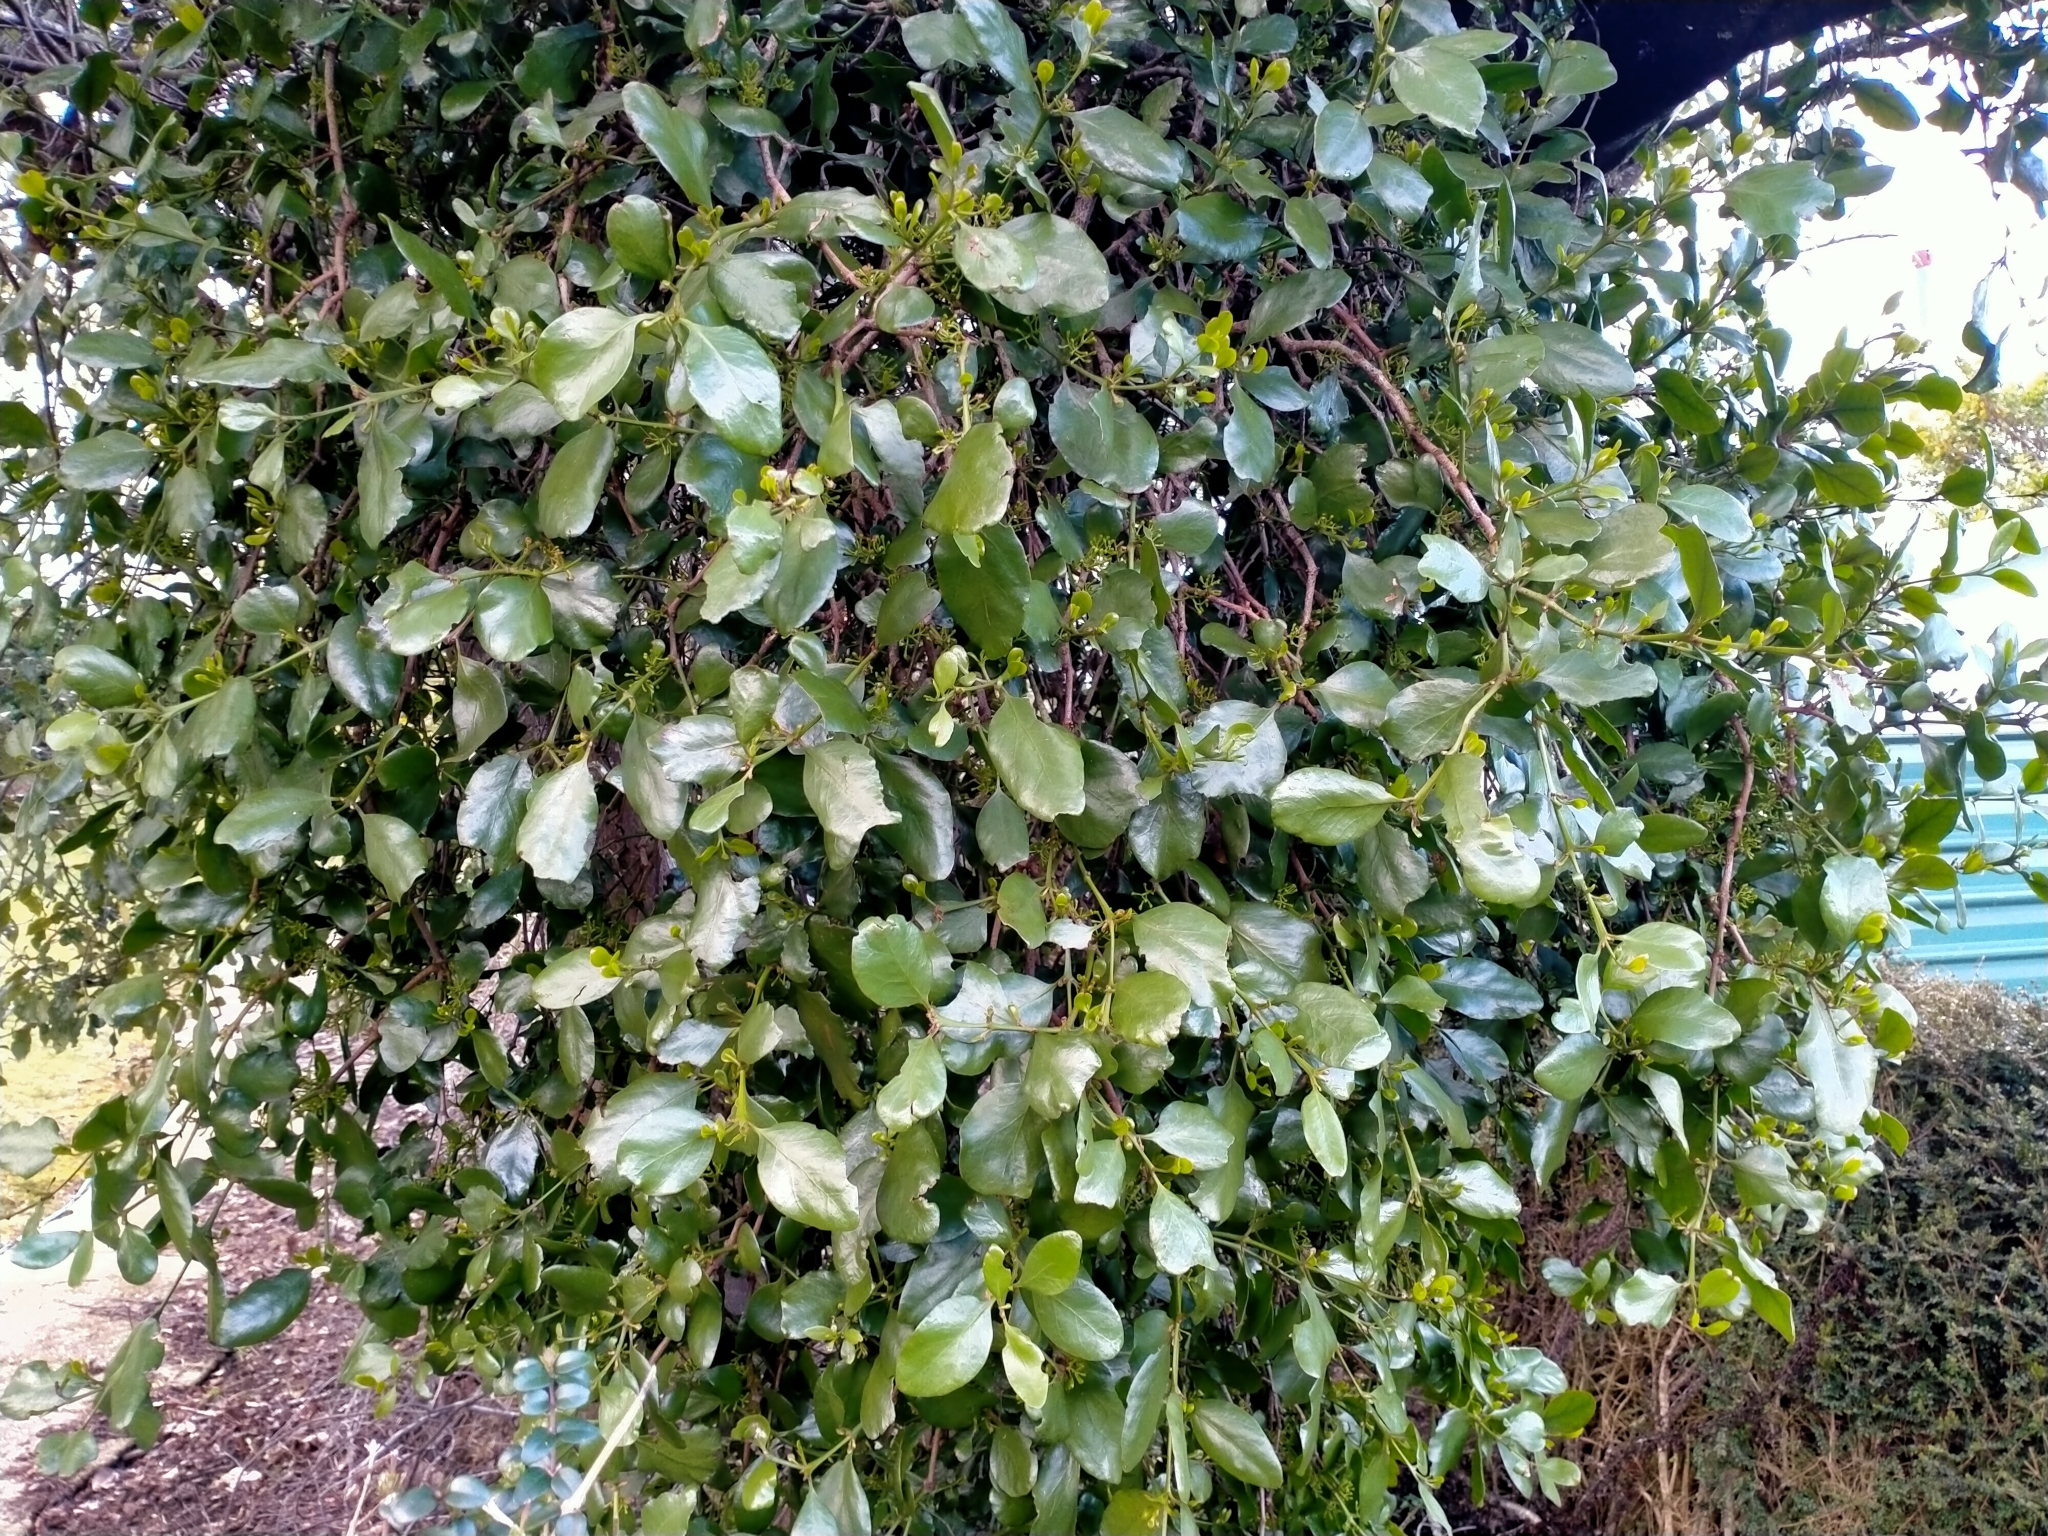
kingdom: Plantae
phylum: Tracheophyta
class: Magnoliopsida
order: Santalales
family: Loranthaceae
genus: Ileostylus
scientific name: Ileostylus micranthus
